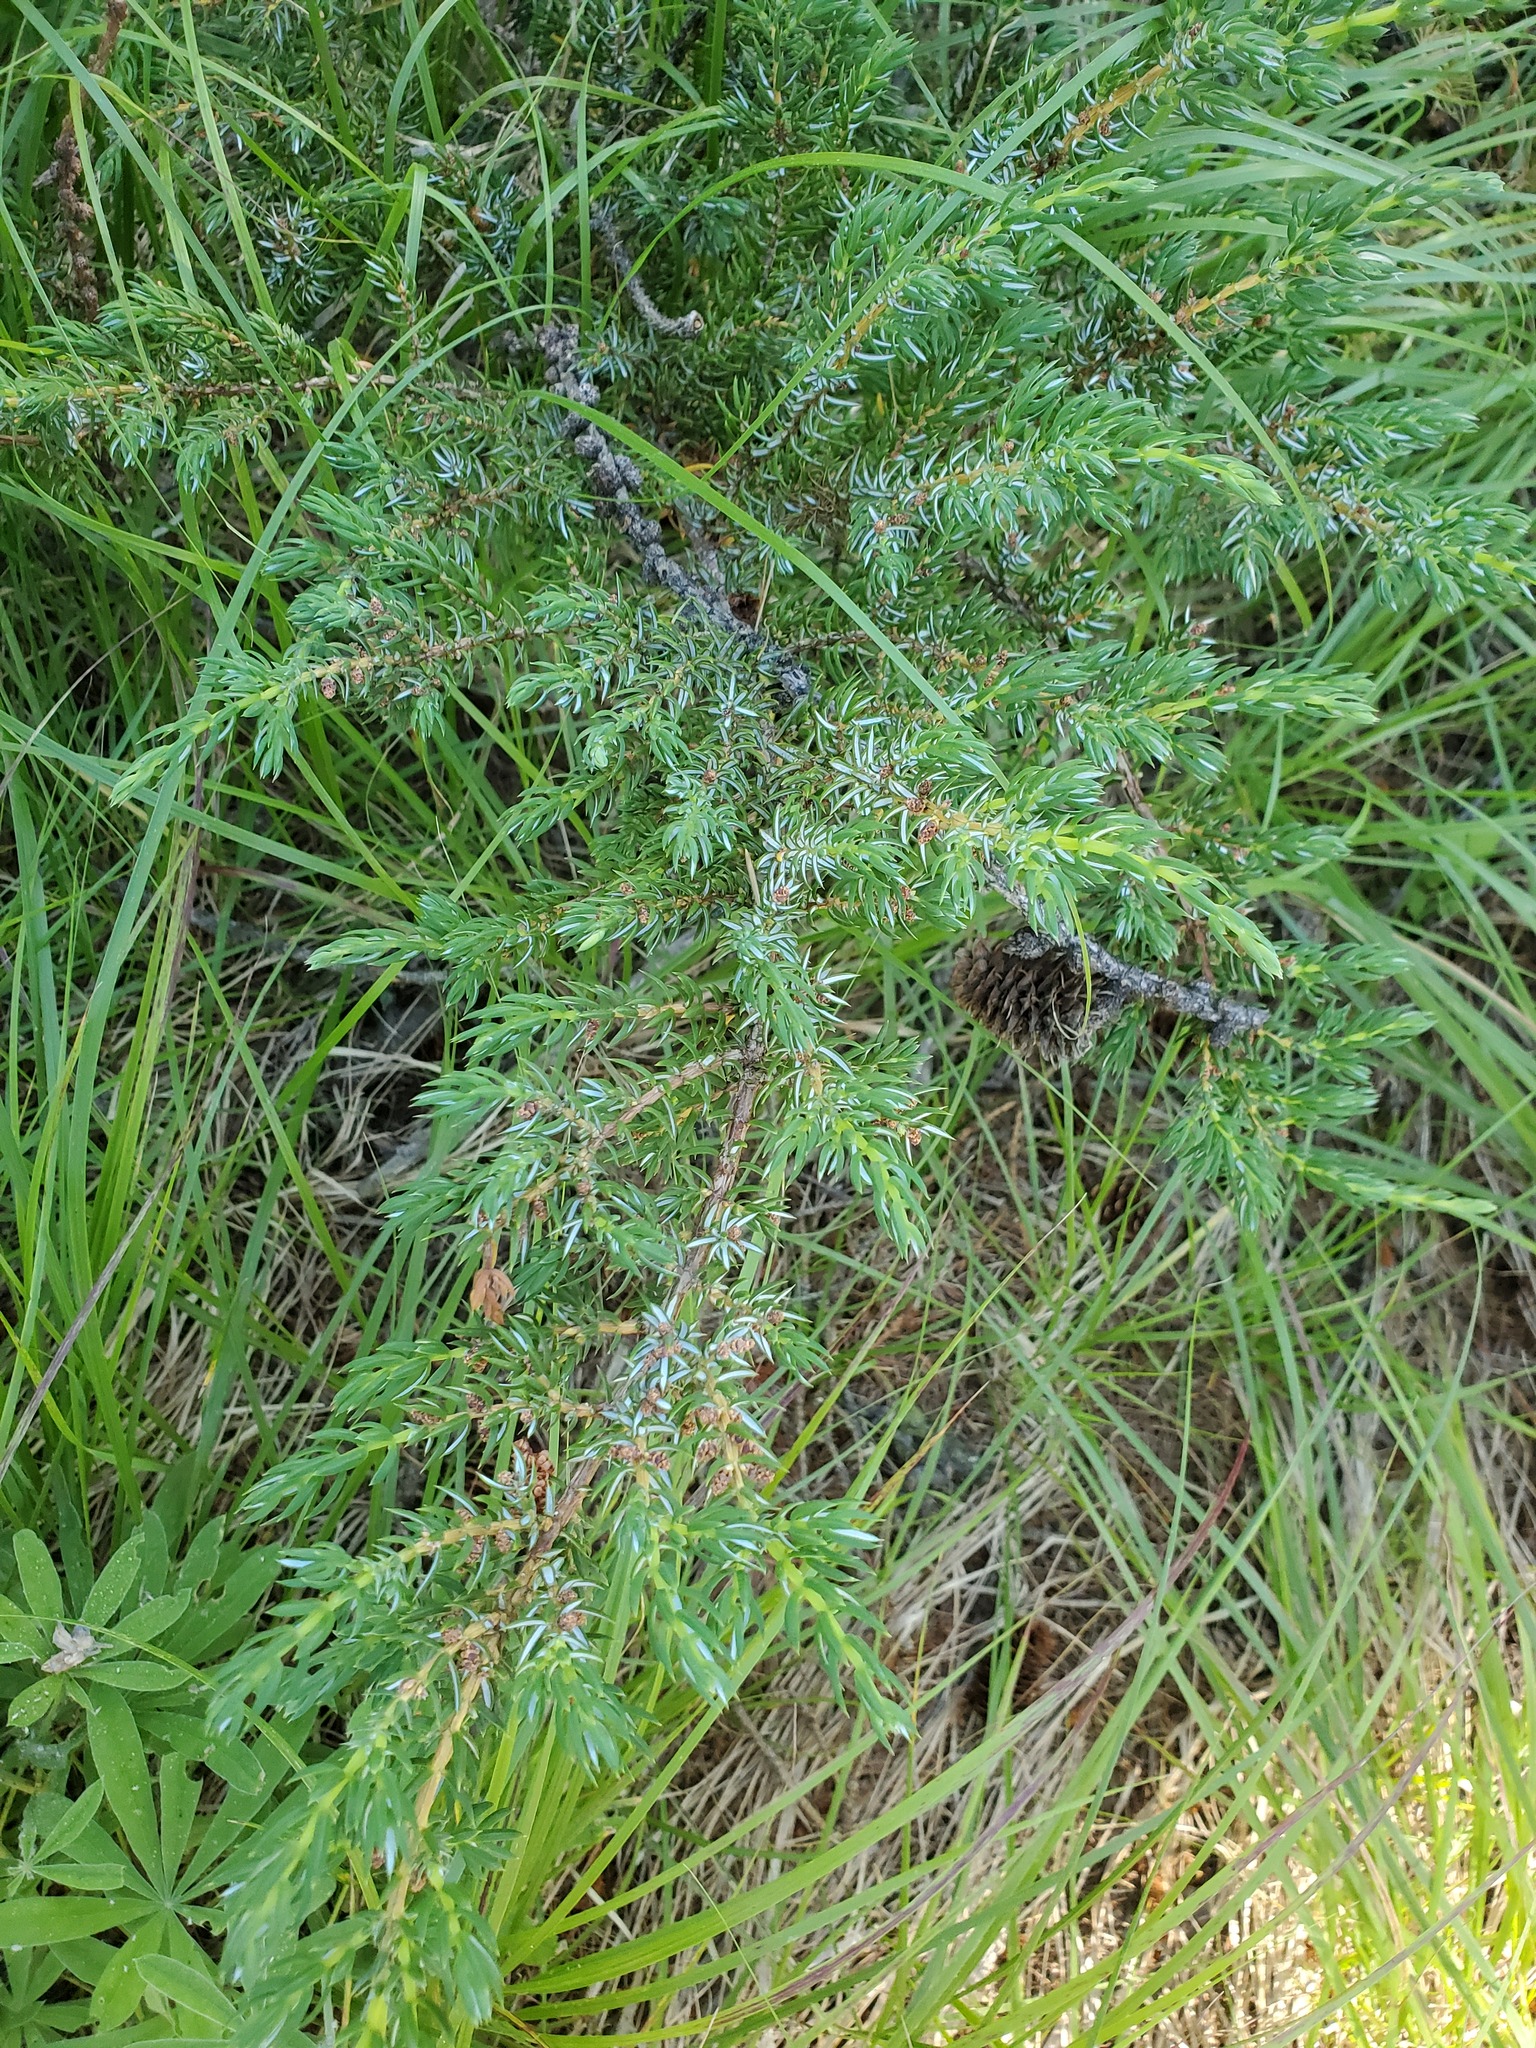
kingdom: Plantae
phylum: Tracheophyta
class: Pinopsida
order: Pinales
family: Cupressaceae
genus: Juniperus
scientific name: Juniperus communis
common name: Common juniper
